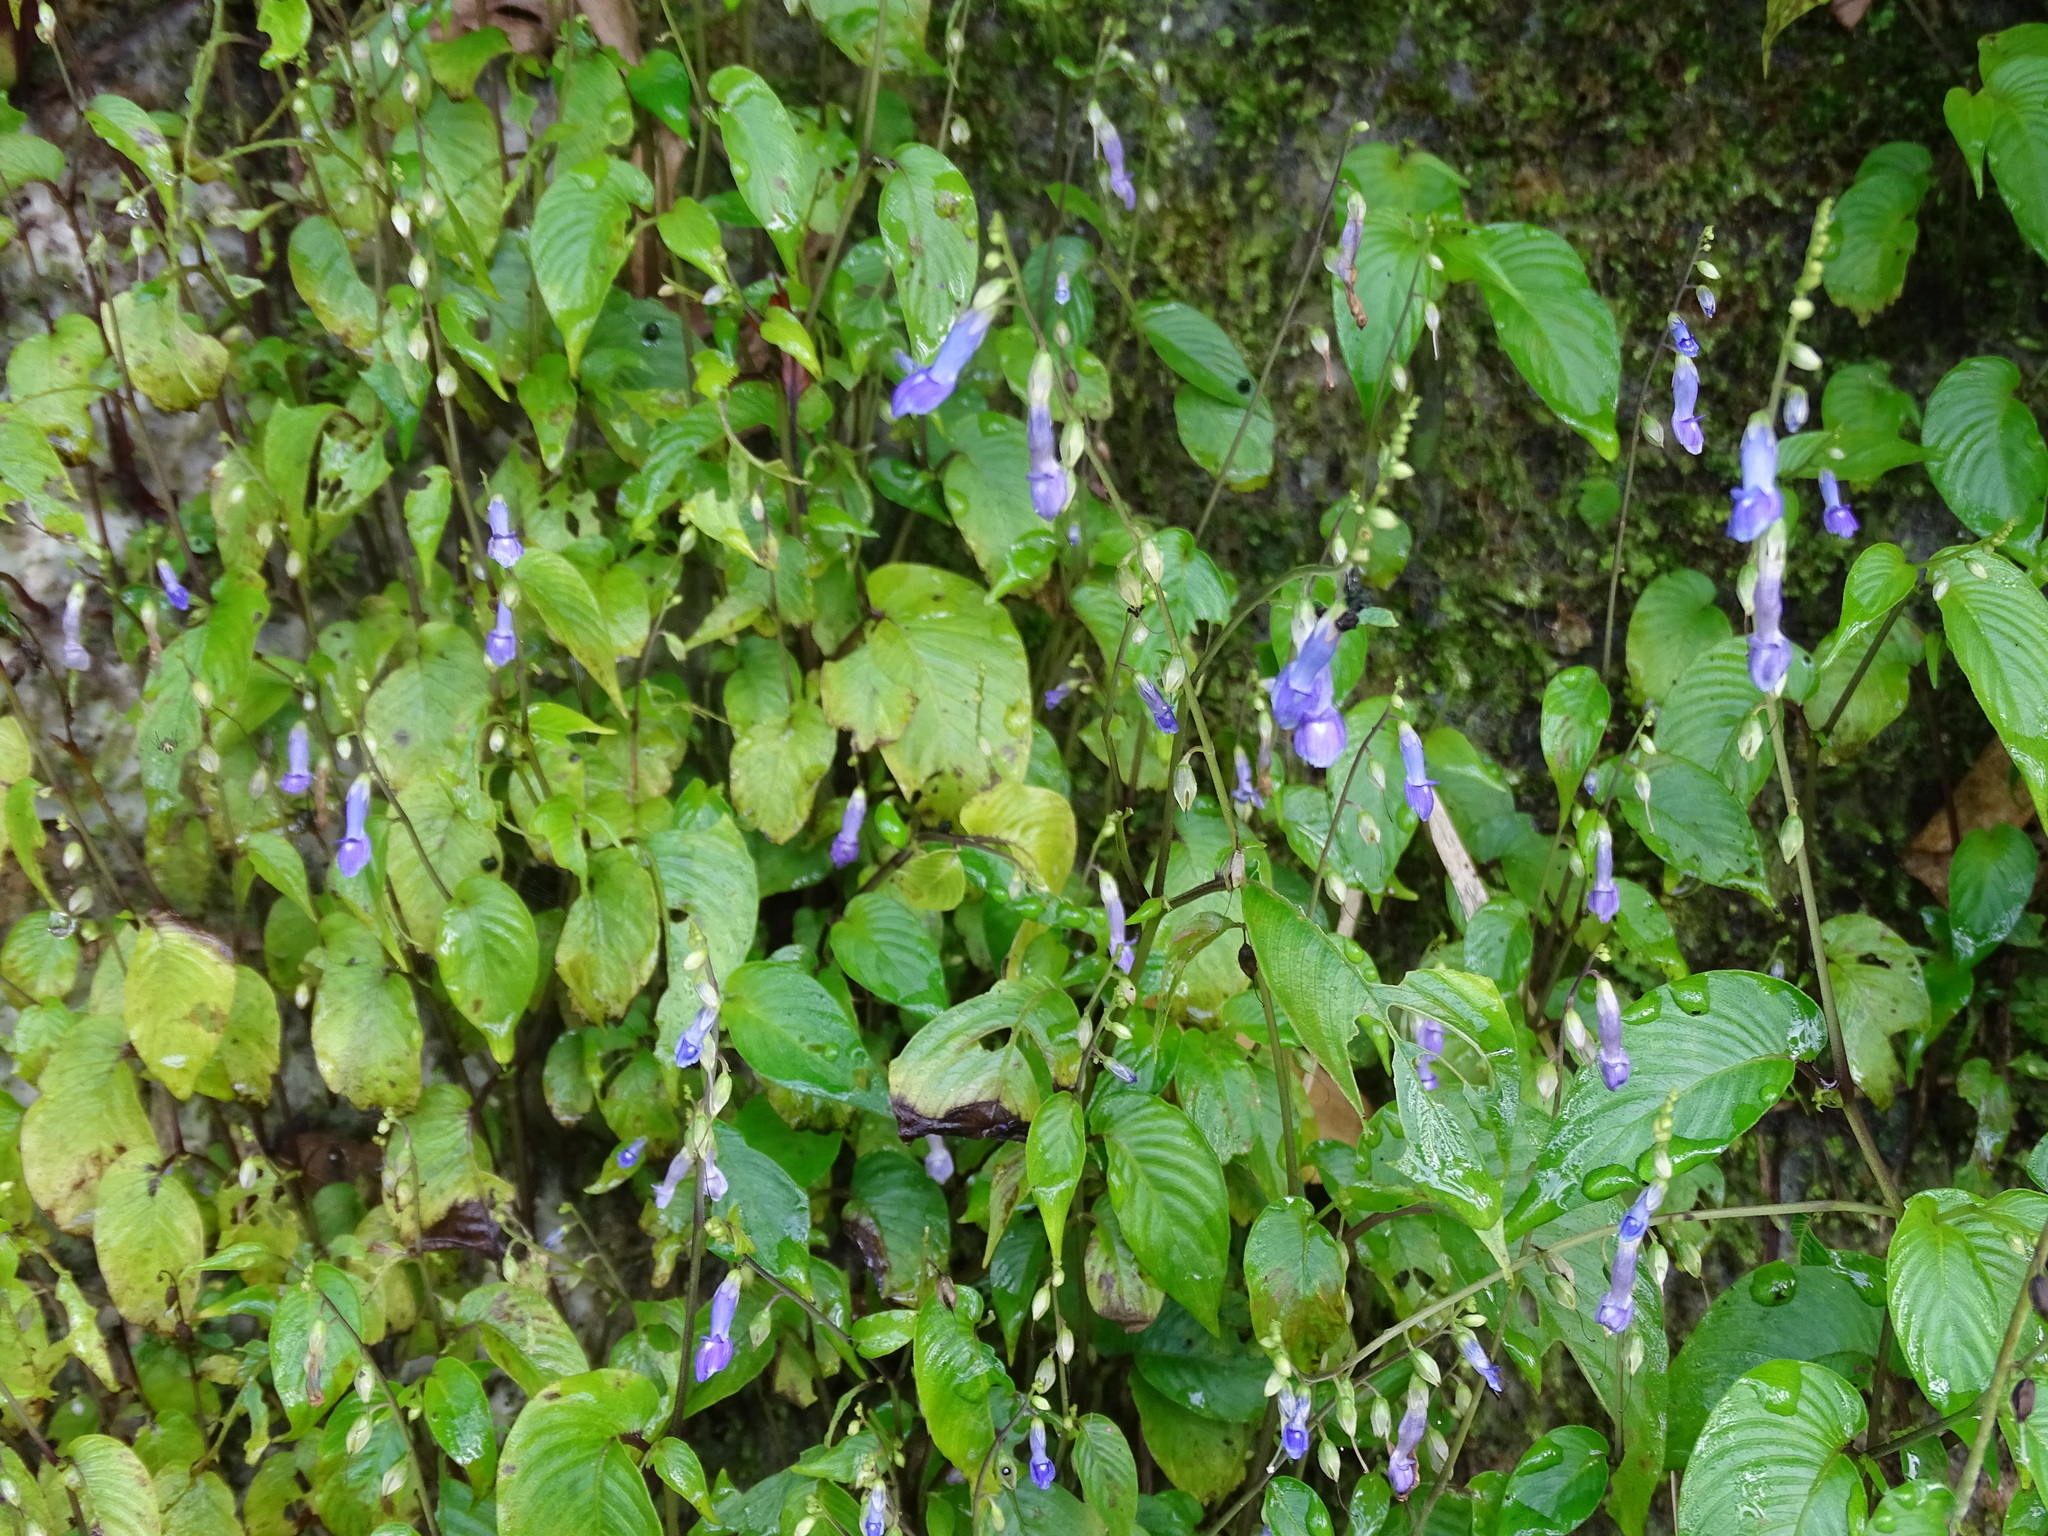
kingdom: Plantae
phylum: Tracheophyta
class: Magnoliopsida
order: Lamiales
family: Gesneriaceae
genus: Rhynchoglossum
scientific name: Rhynchoglossum obliquum
